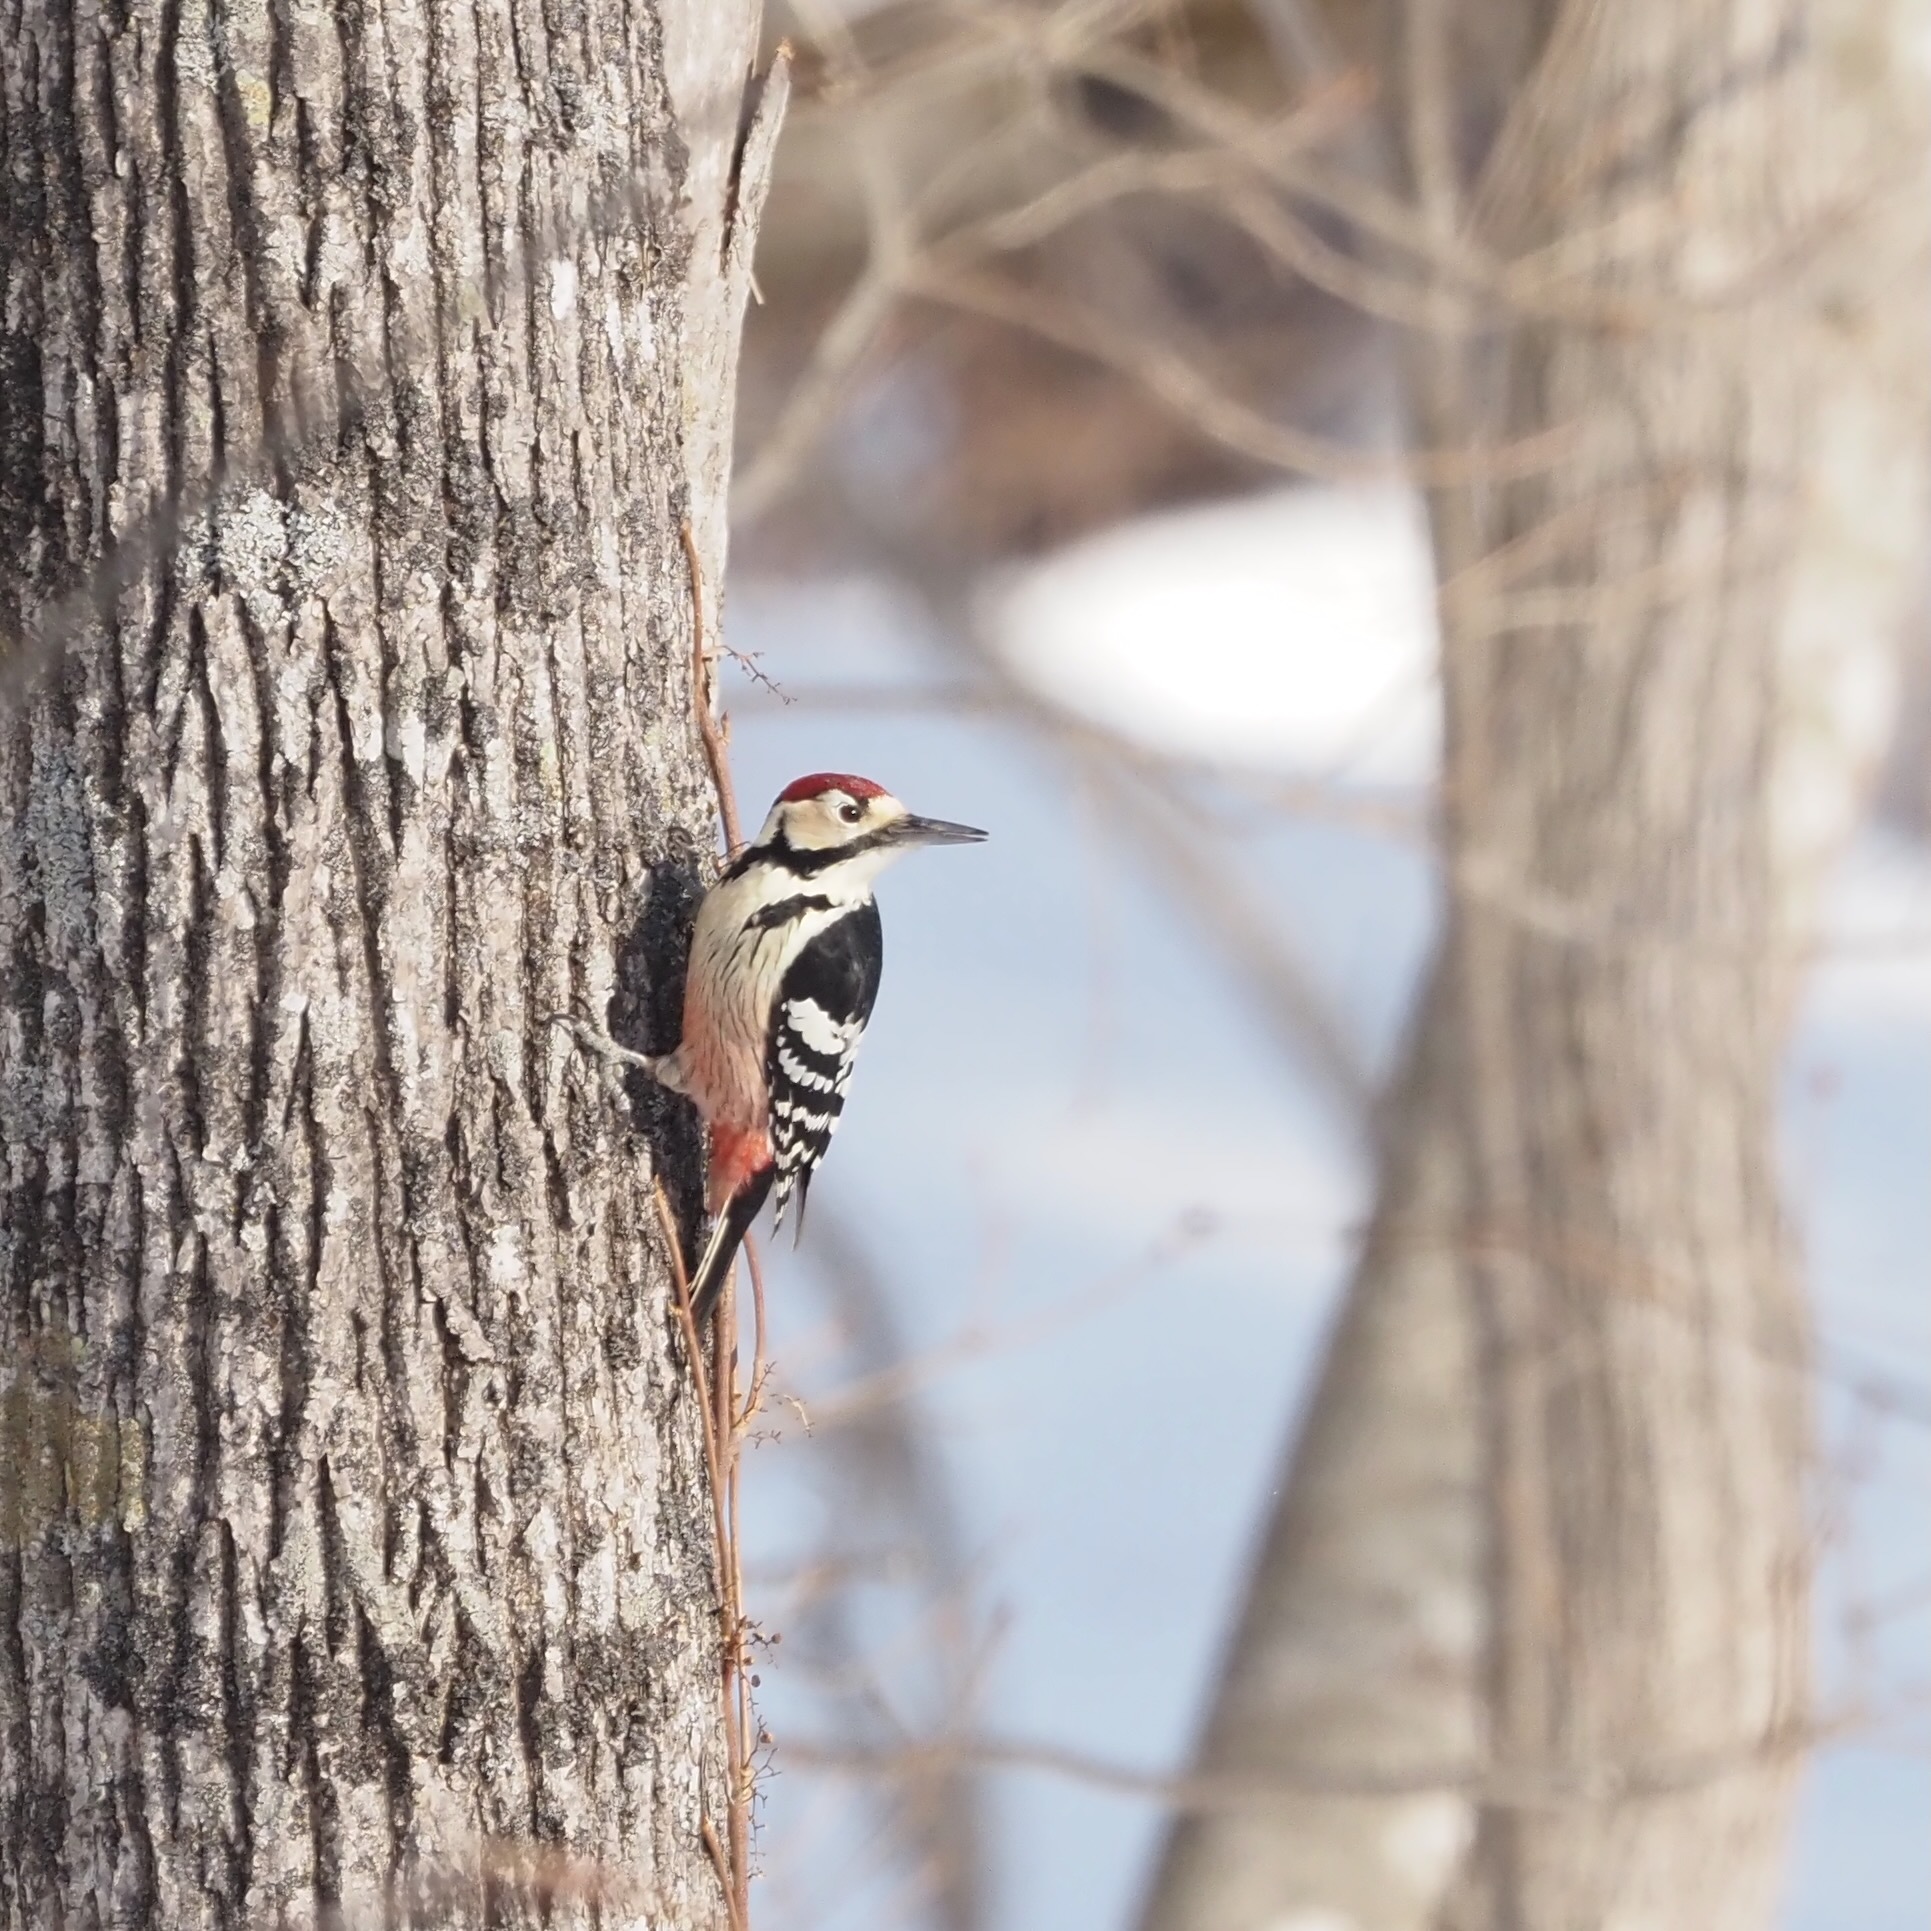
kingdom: Animalia
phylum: Chordata
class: Aves
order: Piciformes
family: Picidae
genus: Dendrocopos
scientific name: Dendrocopos leucotos
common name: White-backed woodpecker
